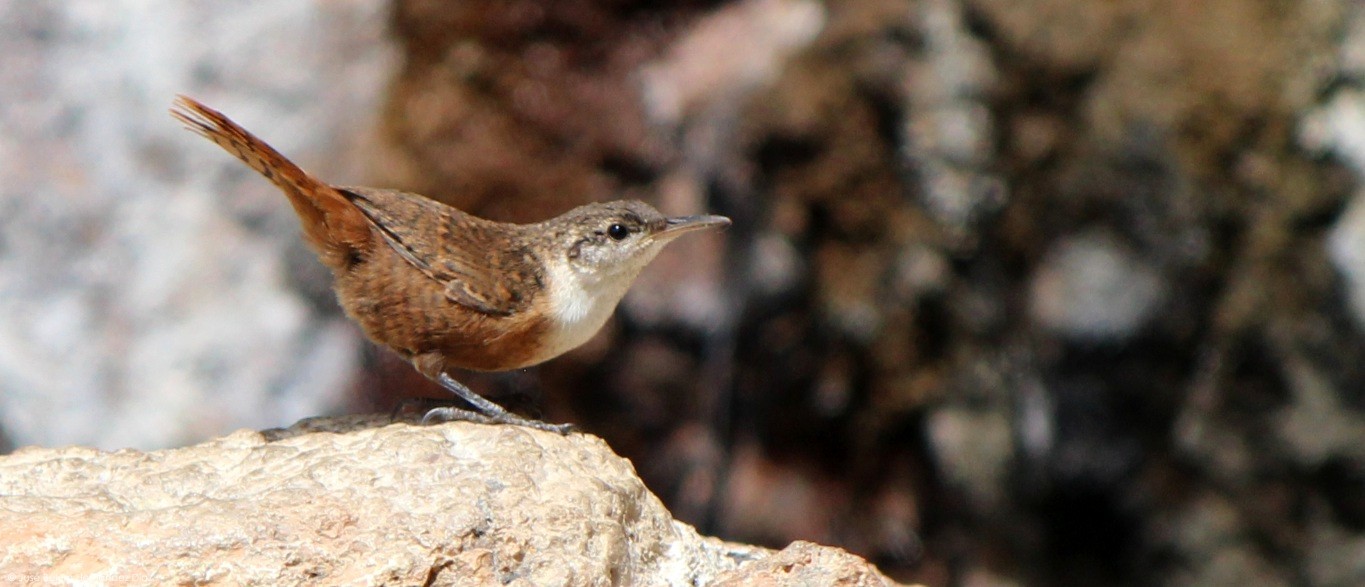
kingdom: Animalia
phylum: Chordata
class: Aves
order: Passeriformes
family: Troglodytidae
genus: Catherpes
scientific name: Catherpes mexicanus
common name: Canyon wren
